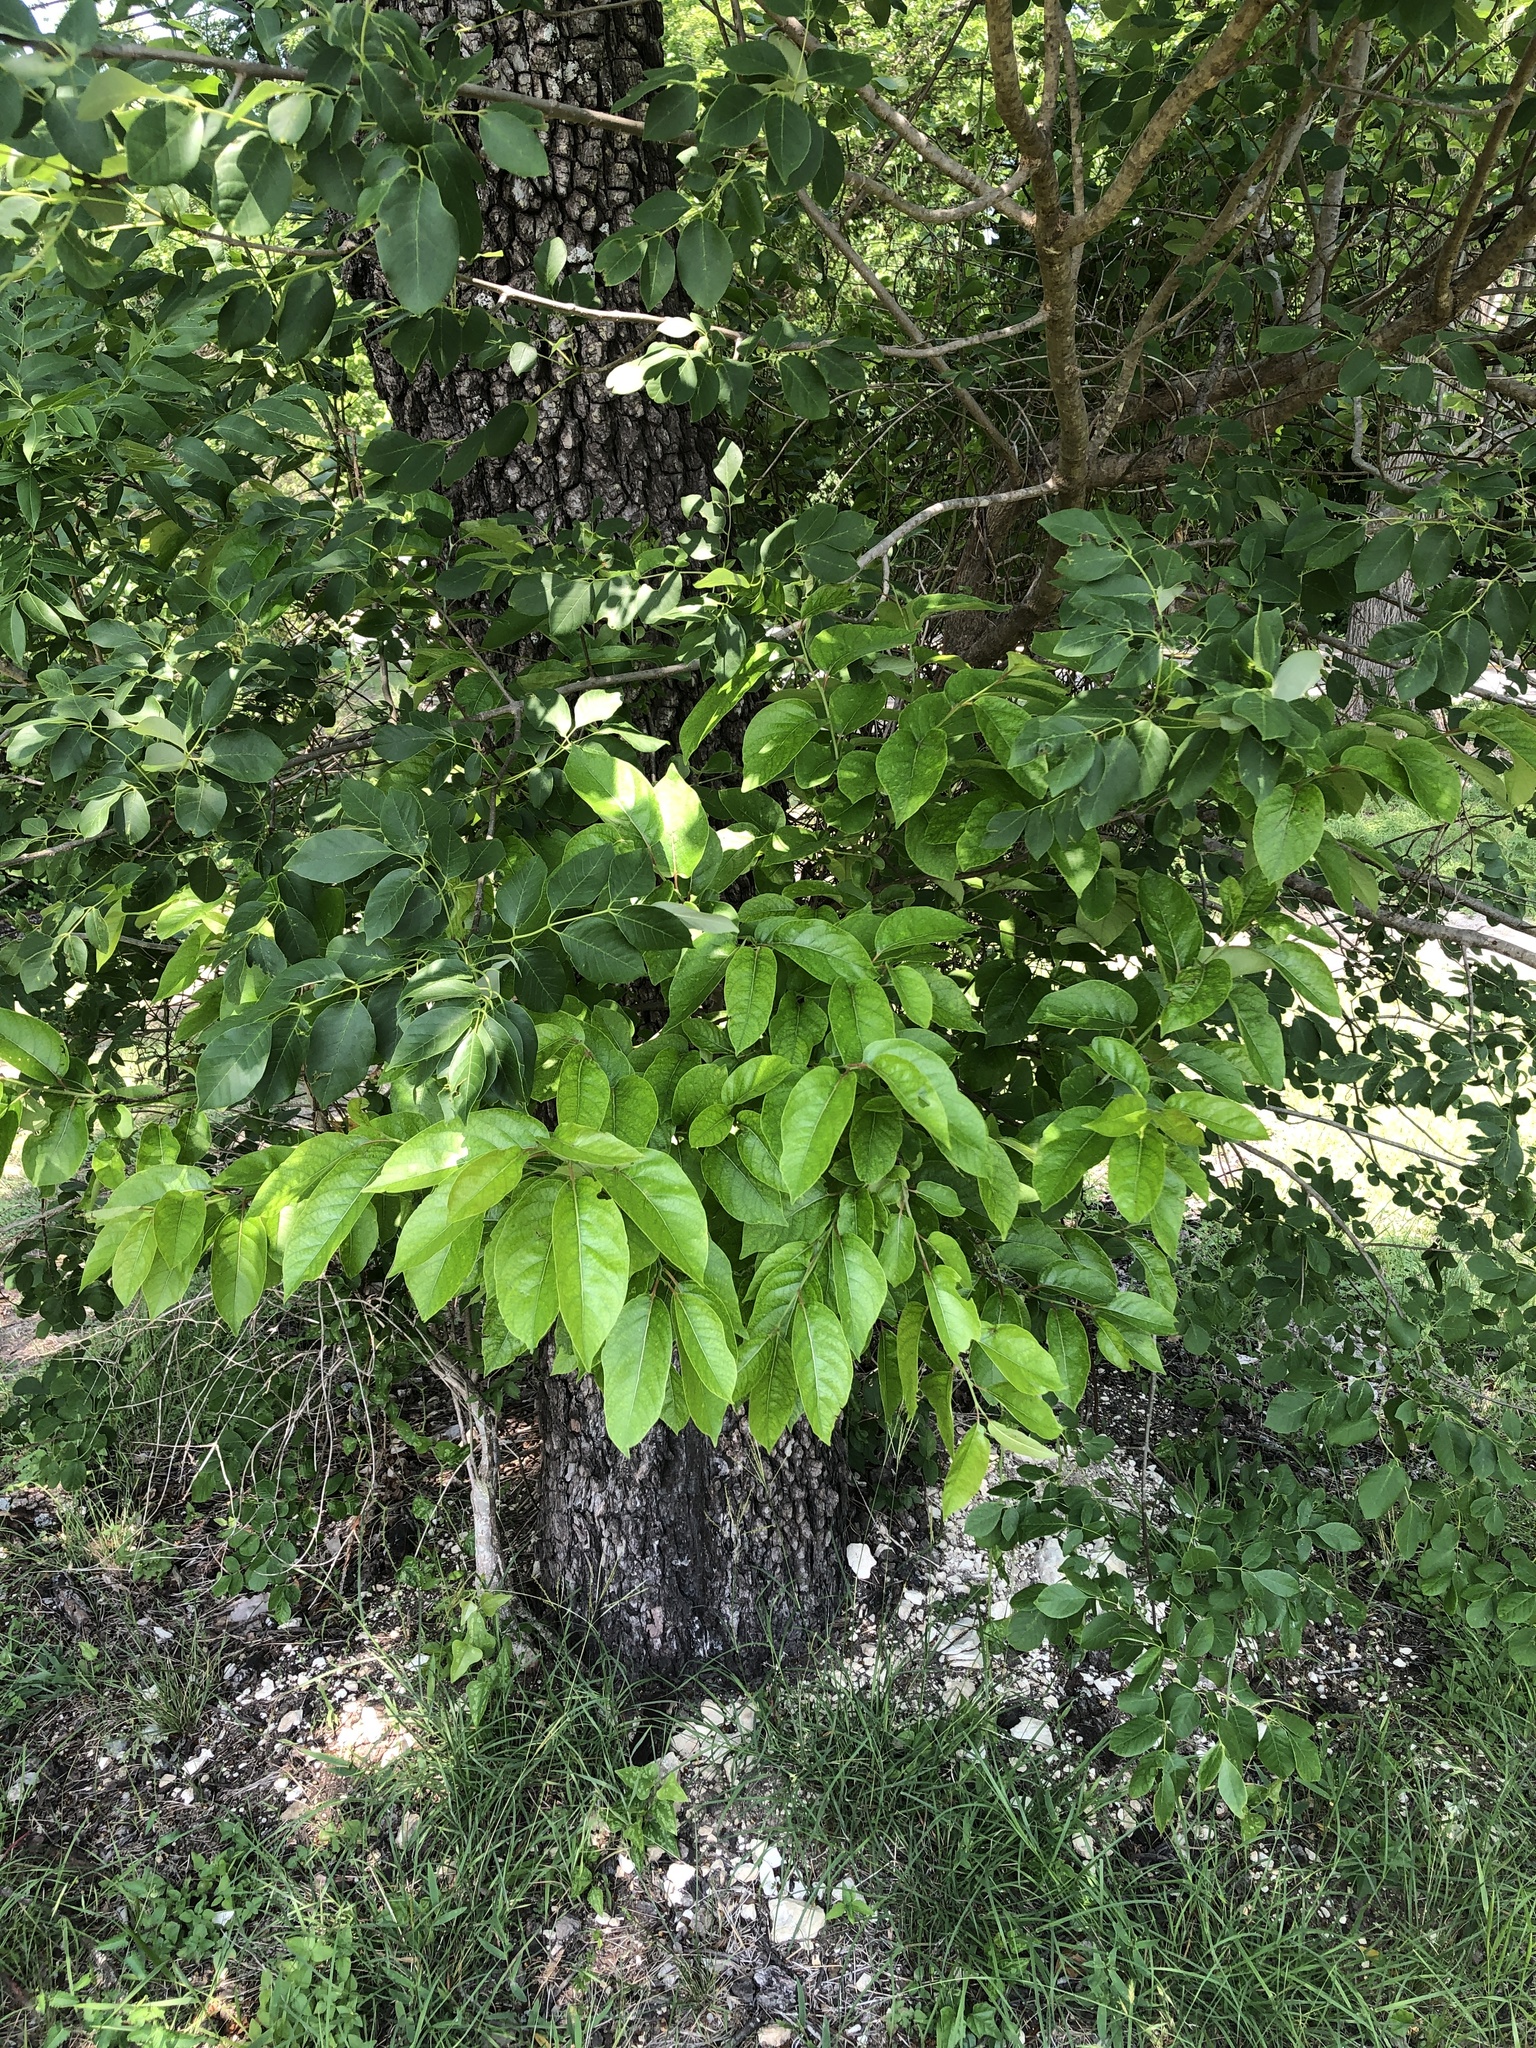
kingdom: Plantae
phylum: Tracheophyta
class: Magnoliopsida
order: Ericales
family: Ebenaceae
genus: Diospyros
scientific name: Diospyros virginiana
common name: Persimmon
